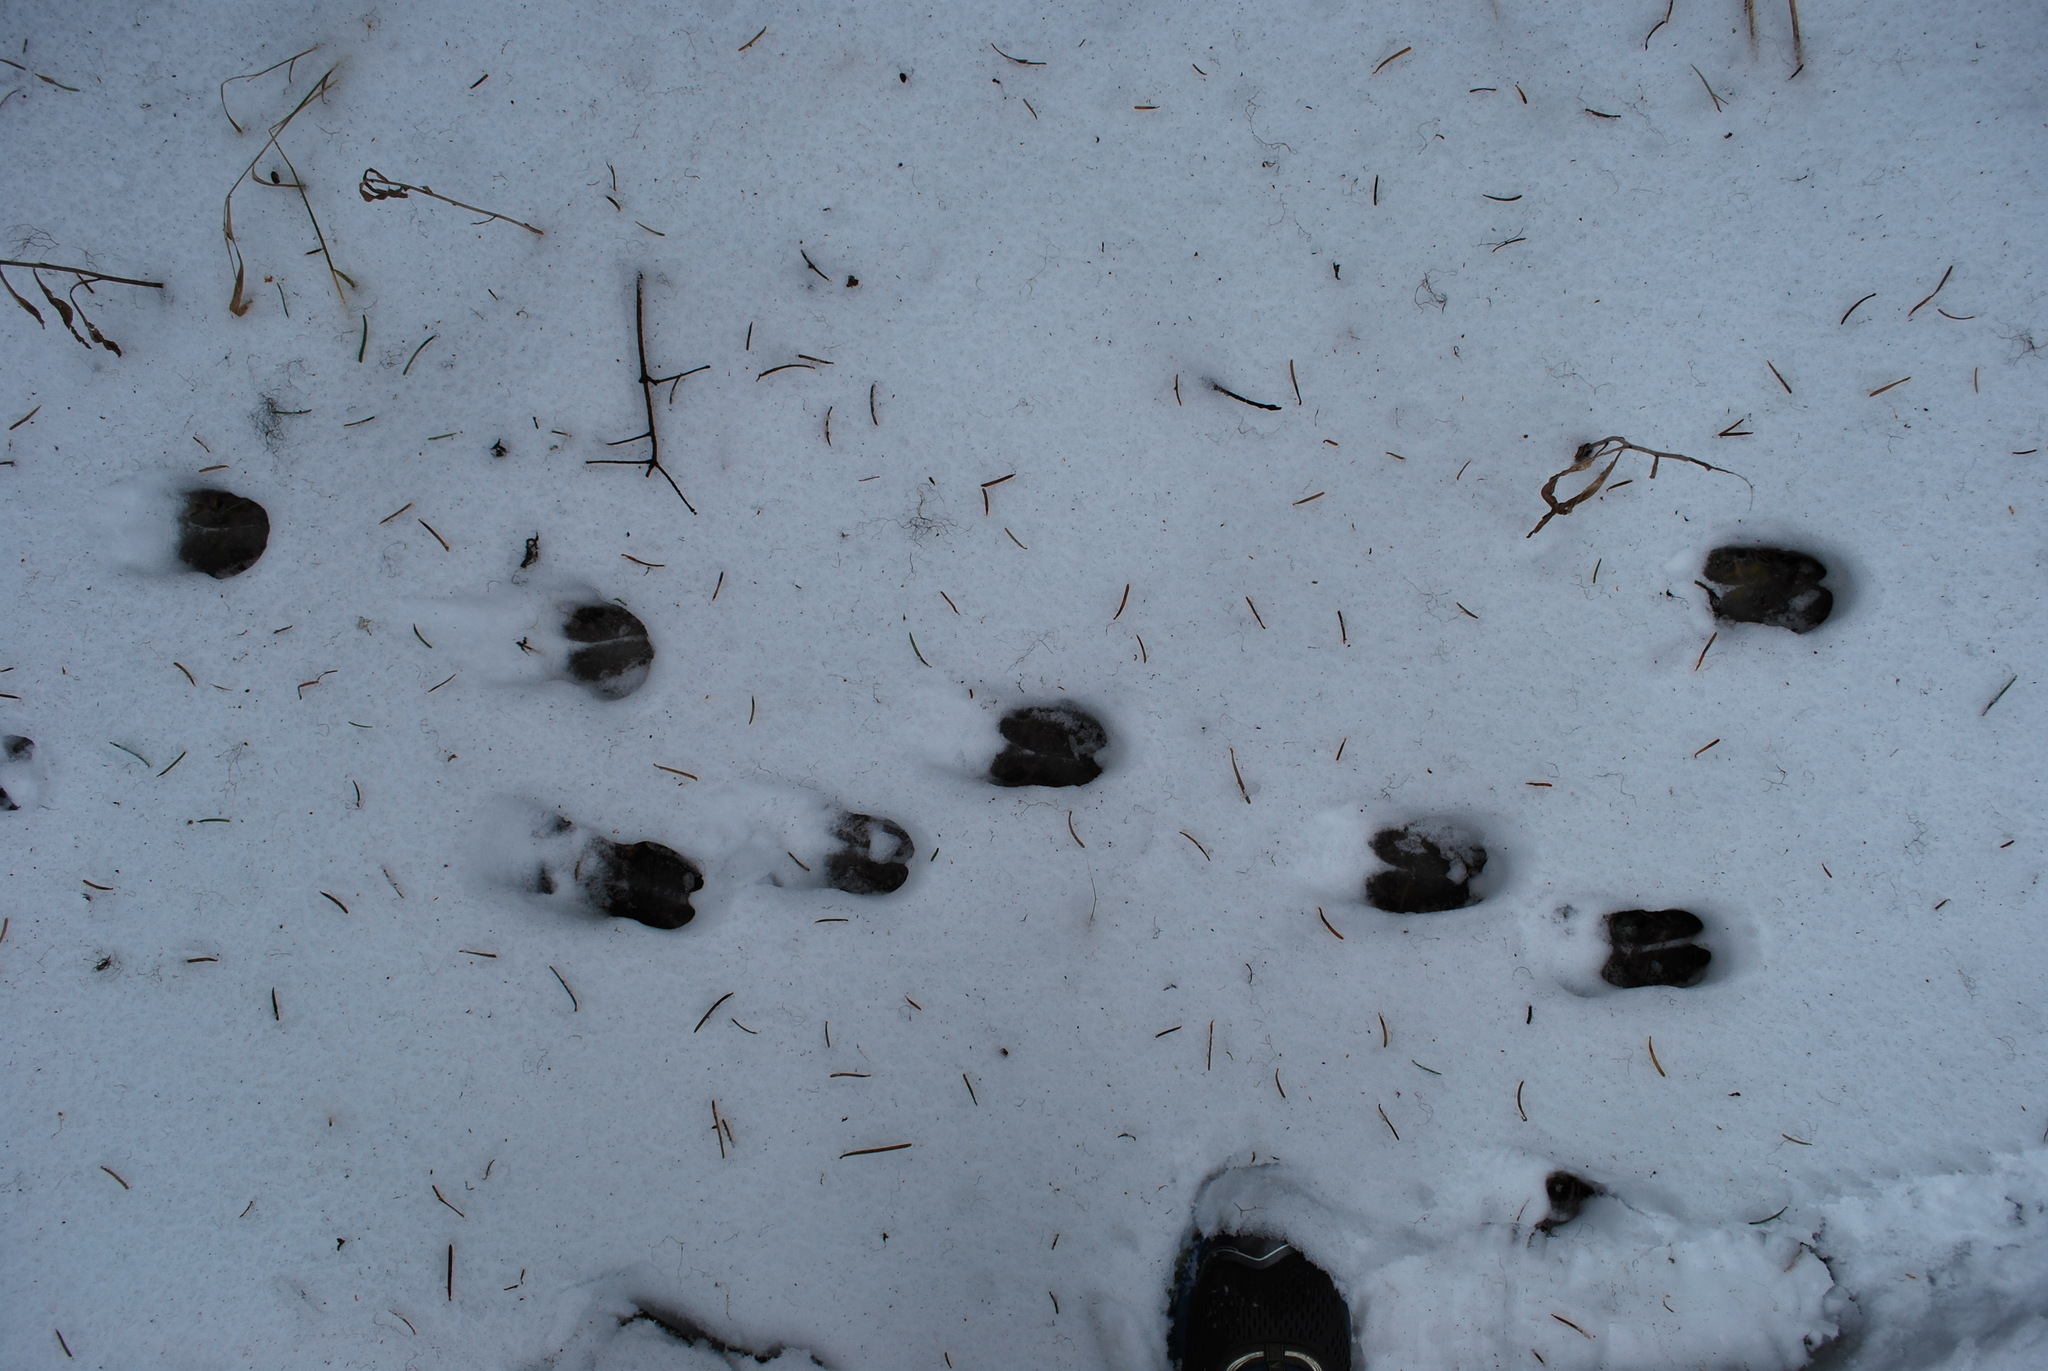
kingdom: Animalia
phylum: Chordata
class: Mammalia
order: Artiodactyla
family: Cervidae
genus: Odocoileus
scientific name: Odocoileus hemionus
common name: Mule deer
